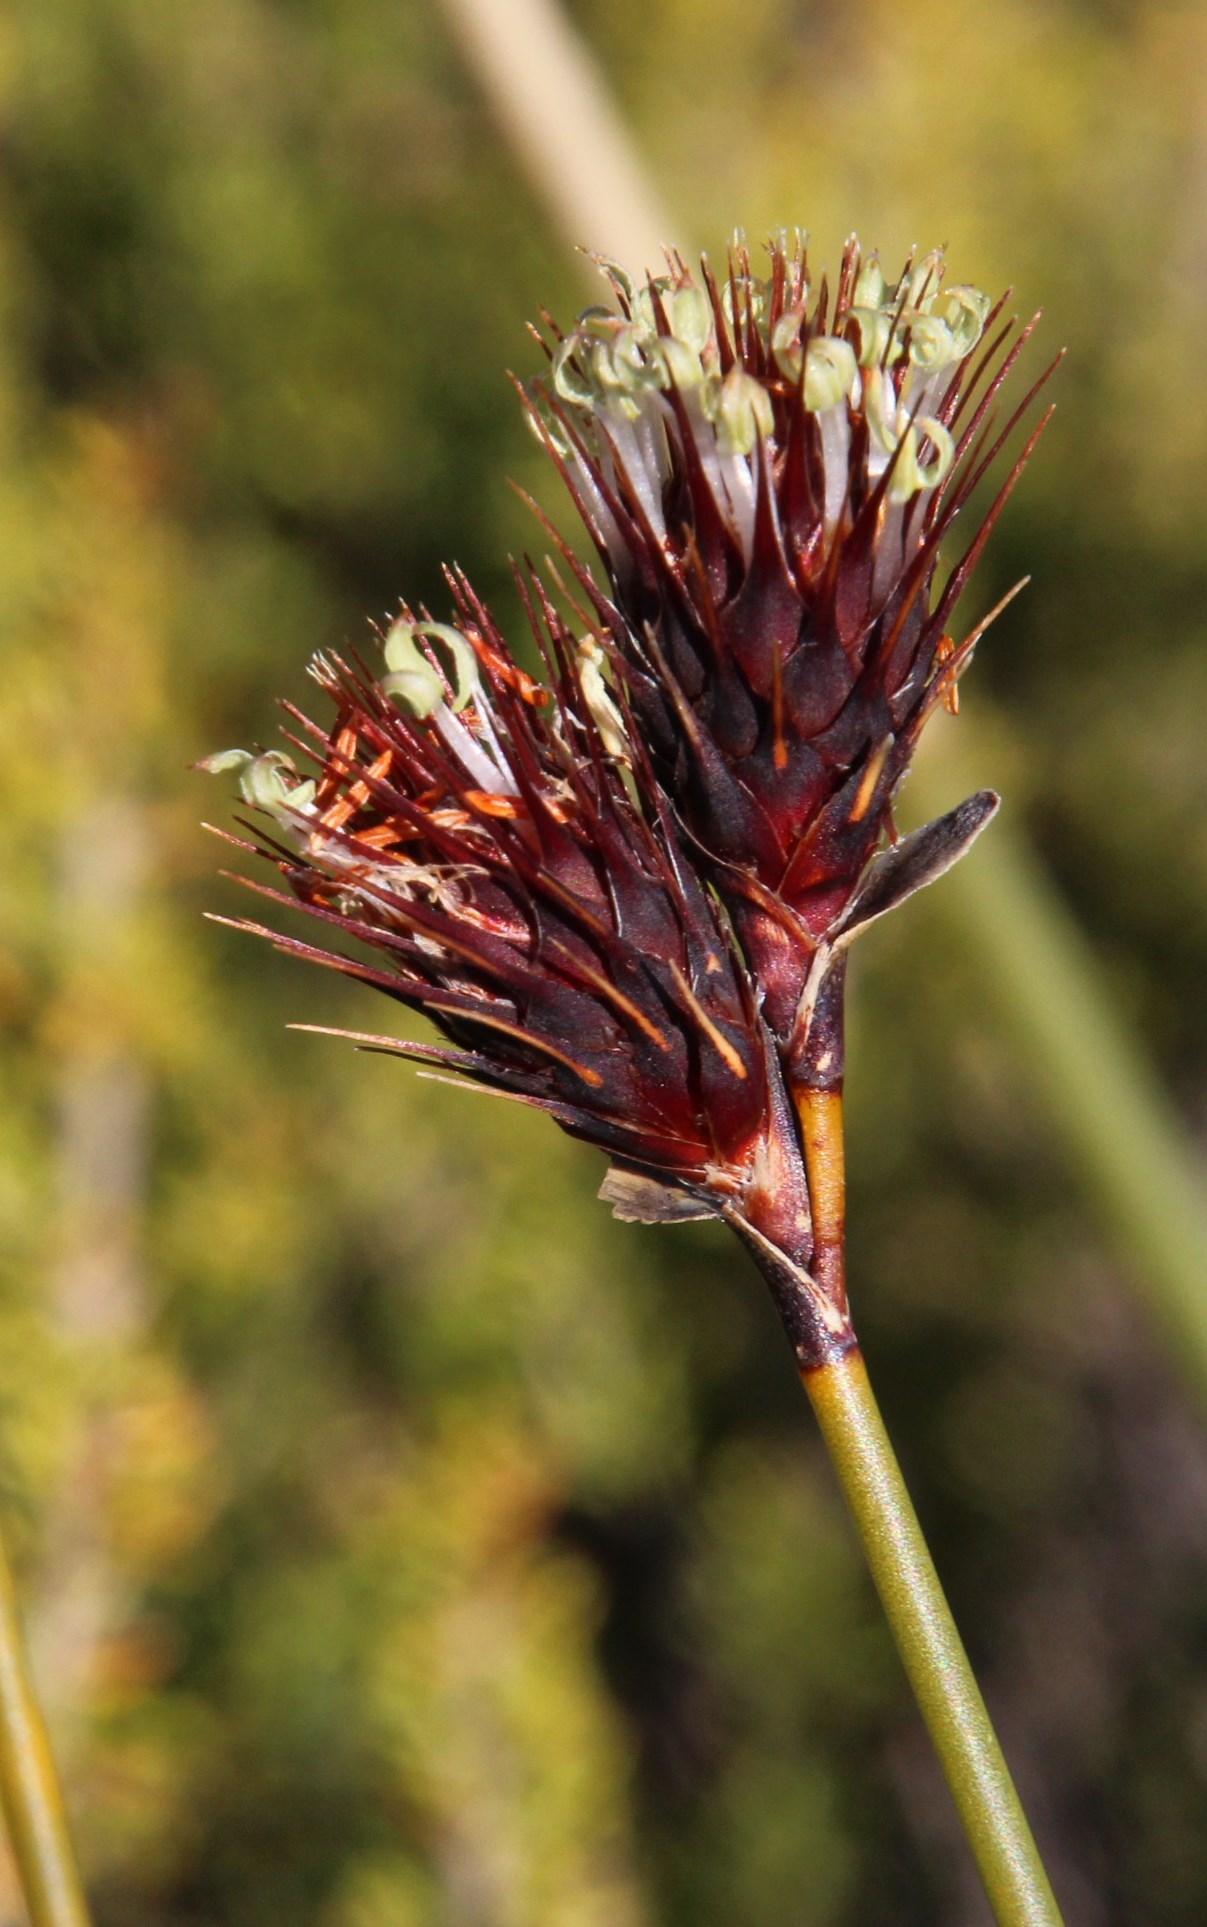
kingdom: Plantae
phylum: Tracheophyta
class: Liliopsida
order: Poales
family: Restionaceae
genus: Hypodiscus
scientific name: Hypodiscus aristatus
